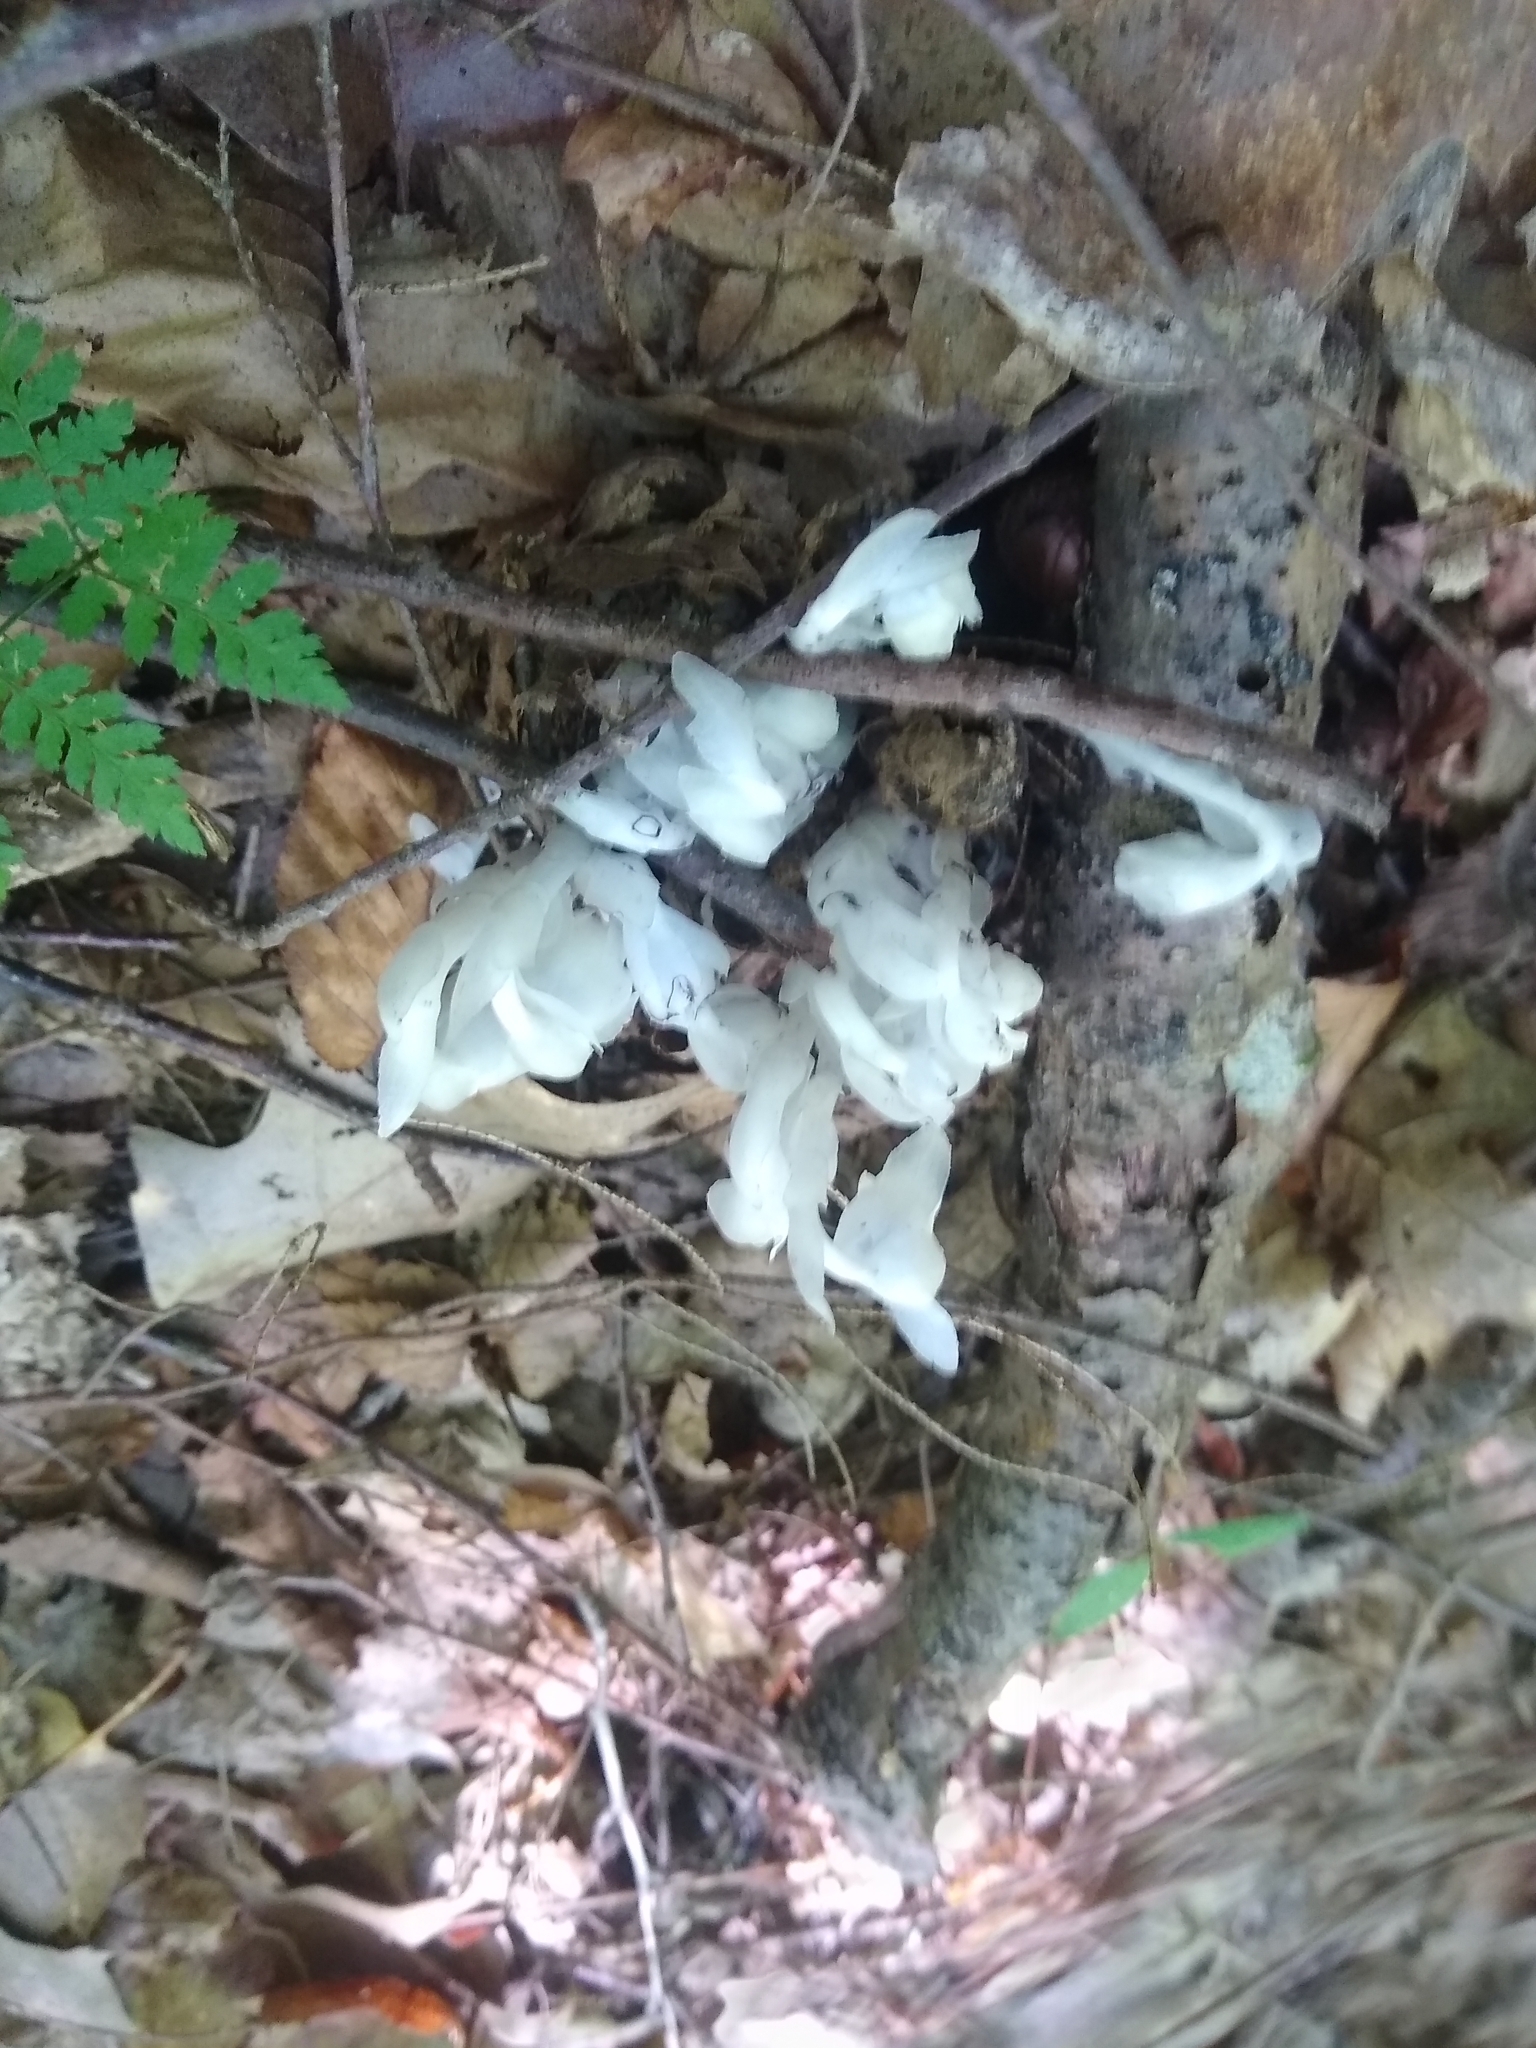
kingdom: Plantae
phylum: Tracheophyta
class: Magnoliopsida
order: Ericales
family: Ericaceae
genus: Monotropa
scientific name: Monotropa uniflora
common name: Convulsion root
